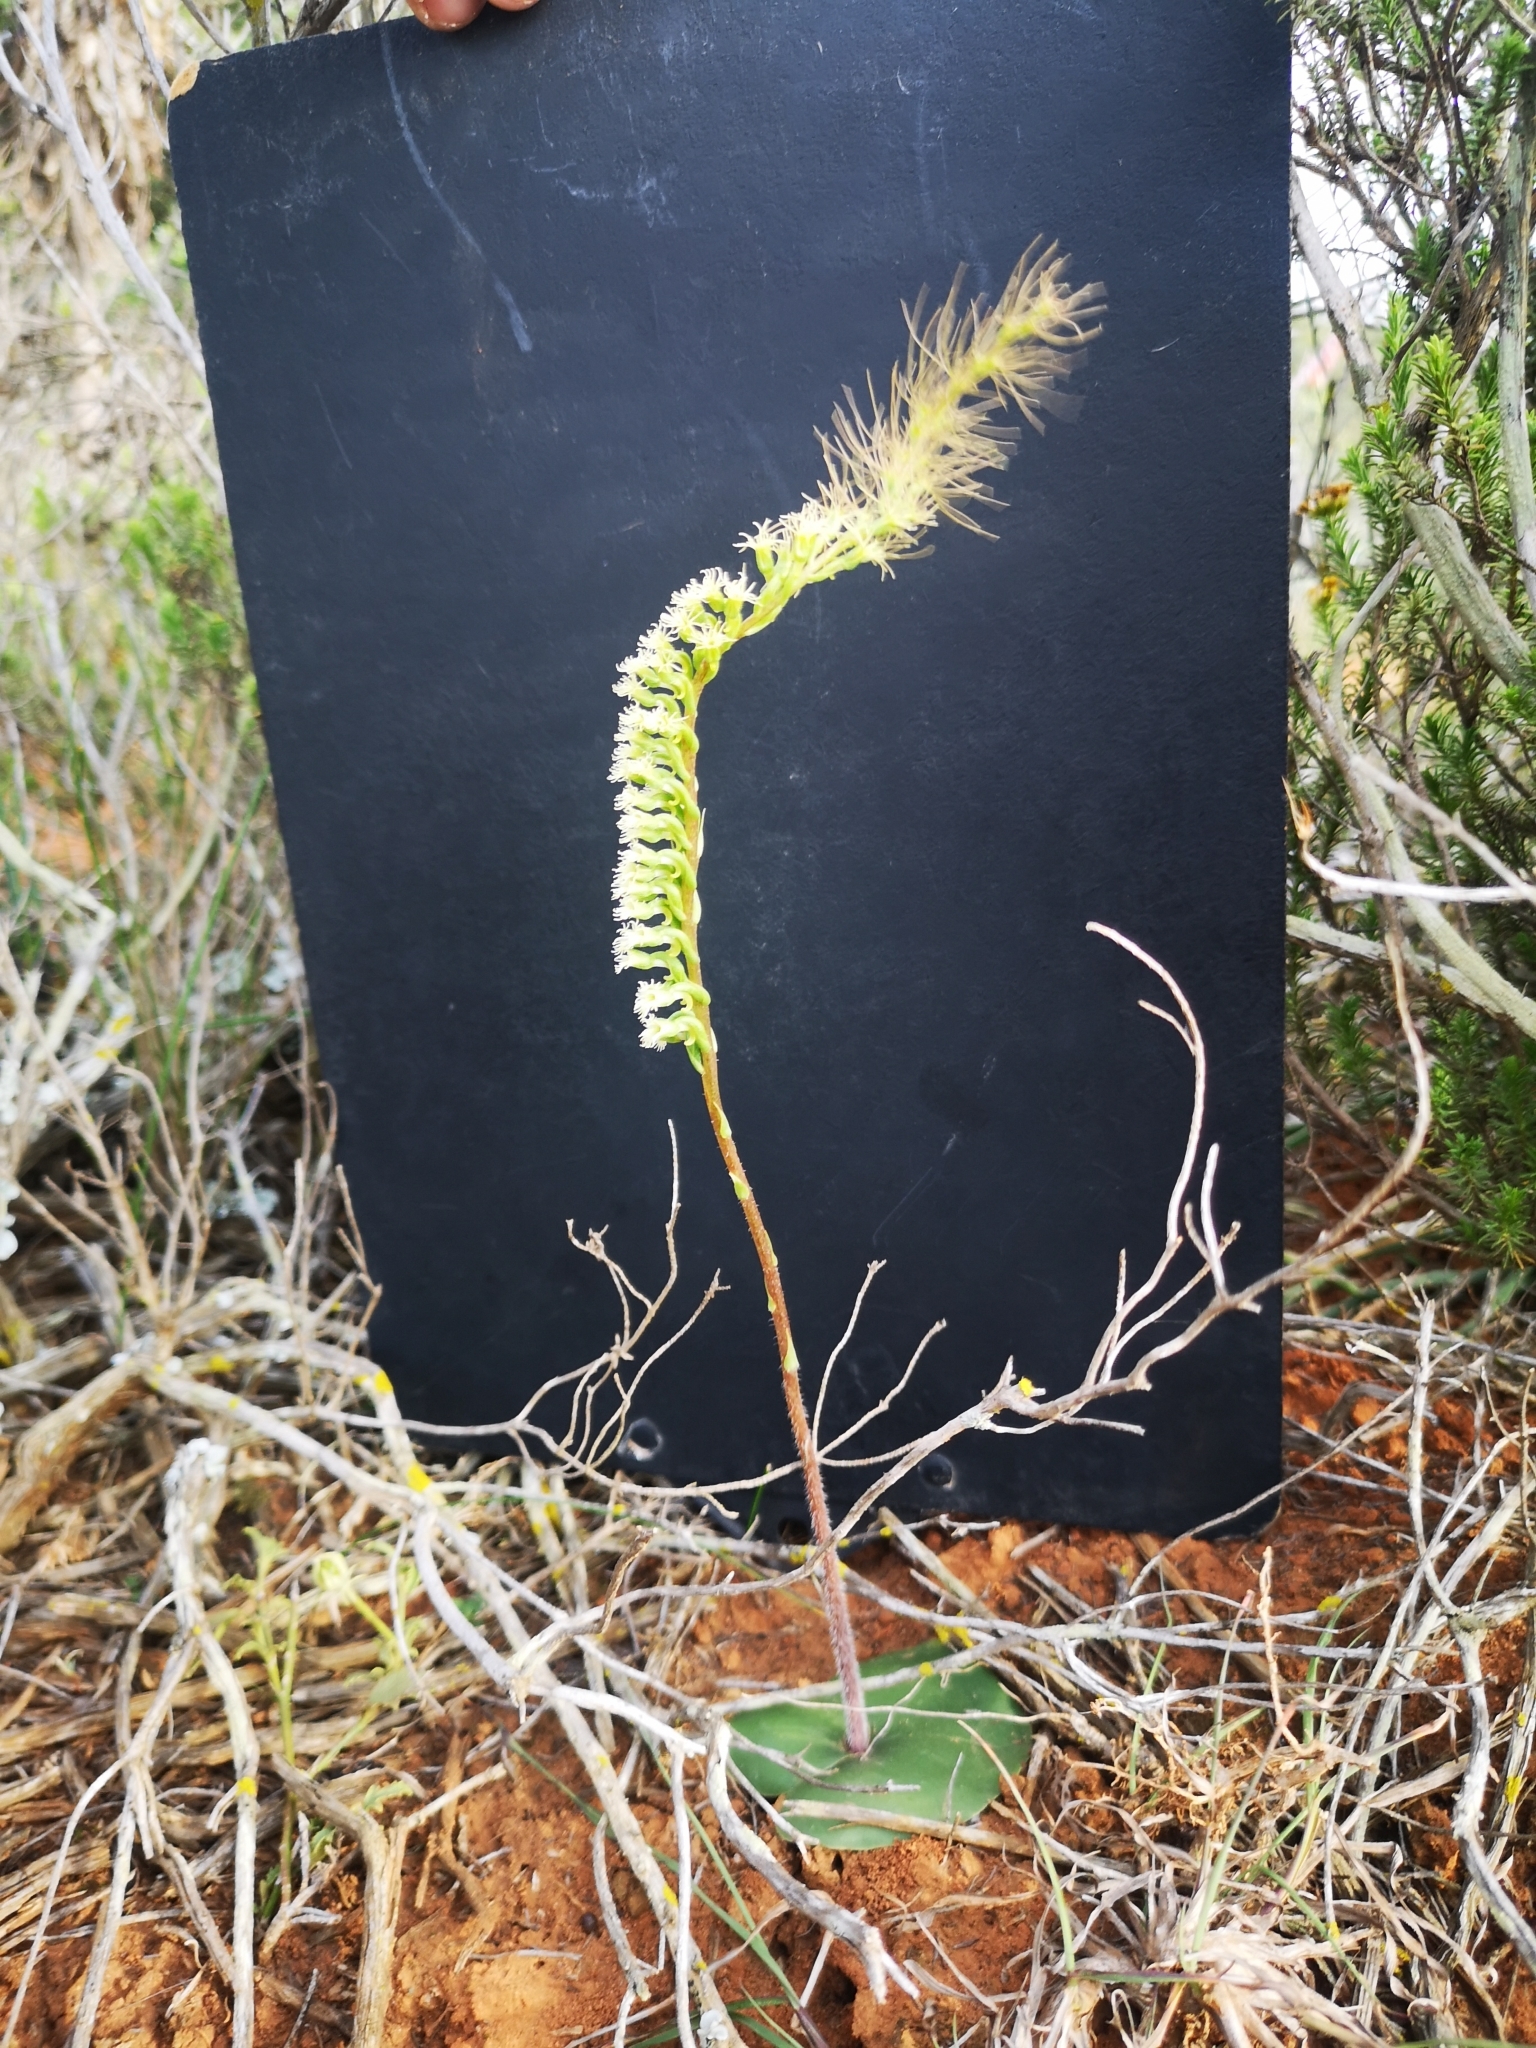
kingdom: Plantae
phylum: Tracheophyta
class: Liliopsida
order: Asparagales
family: Orchidaceae
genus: Holothrix
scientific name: Holothrix burchellii
